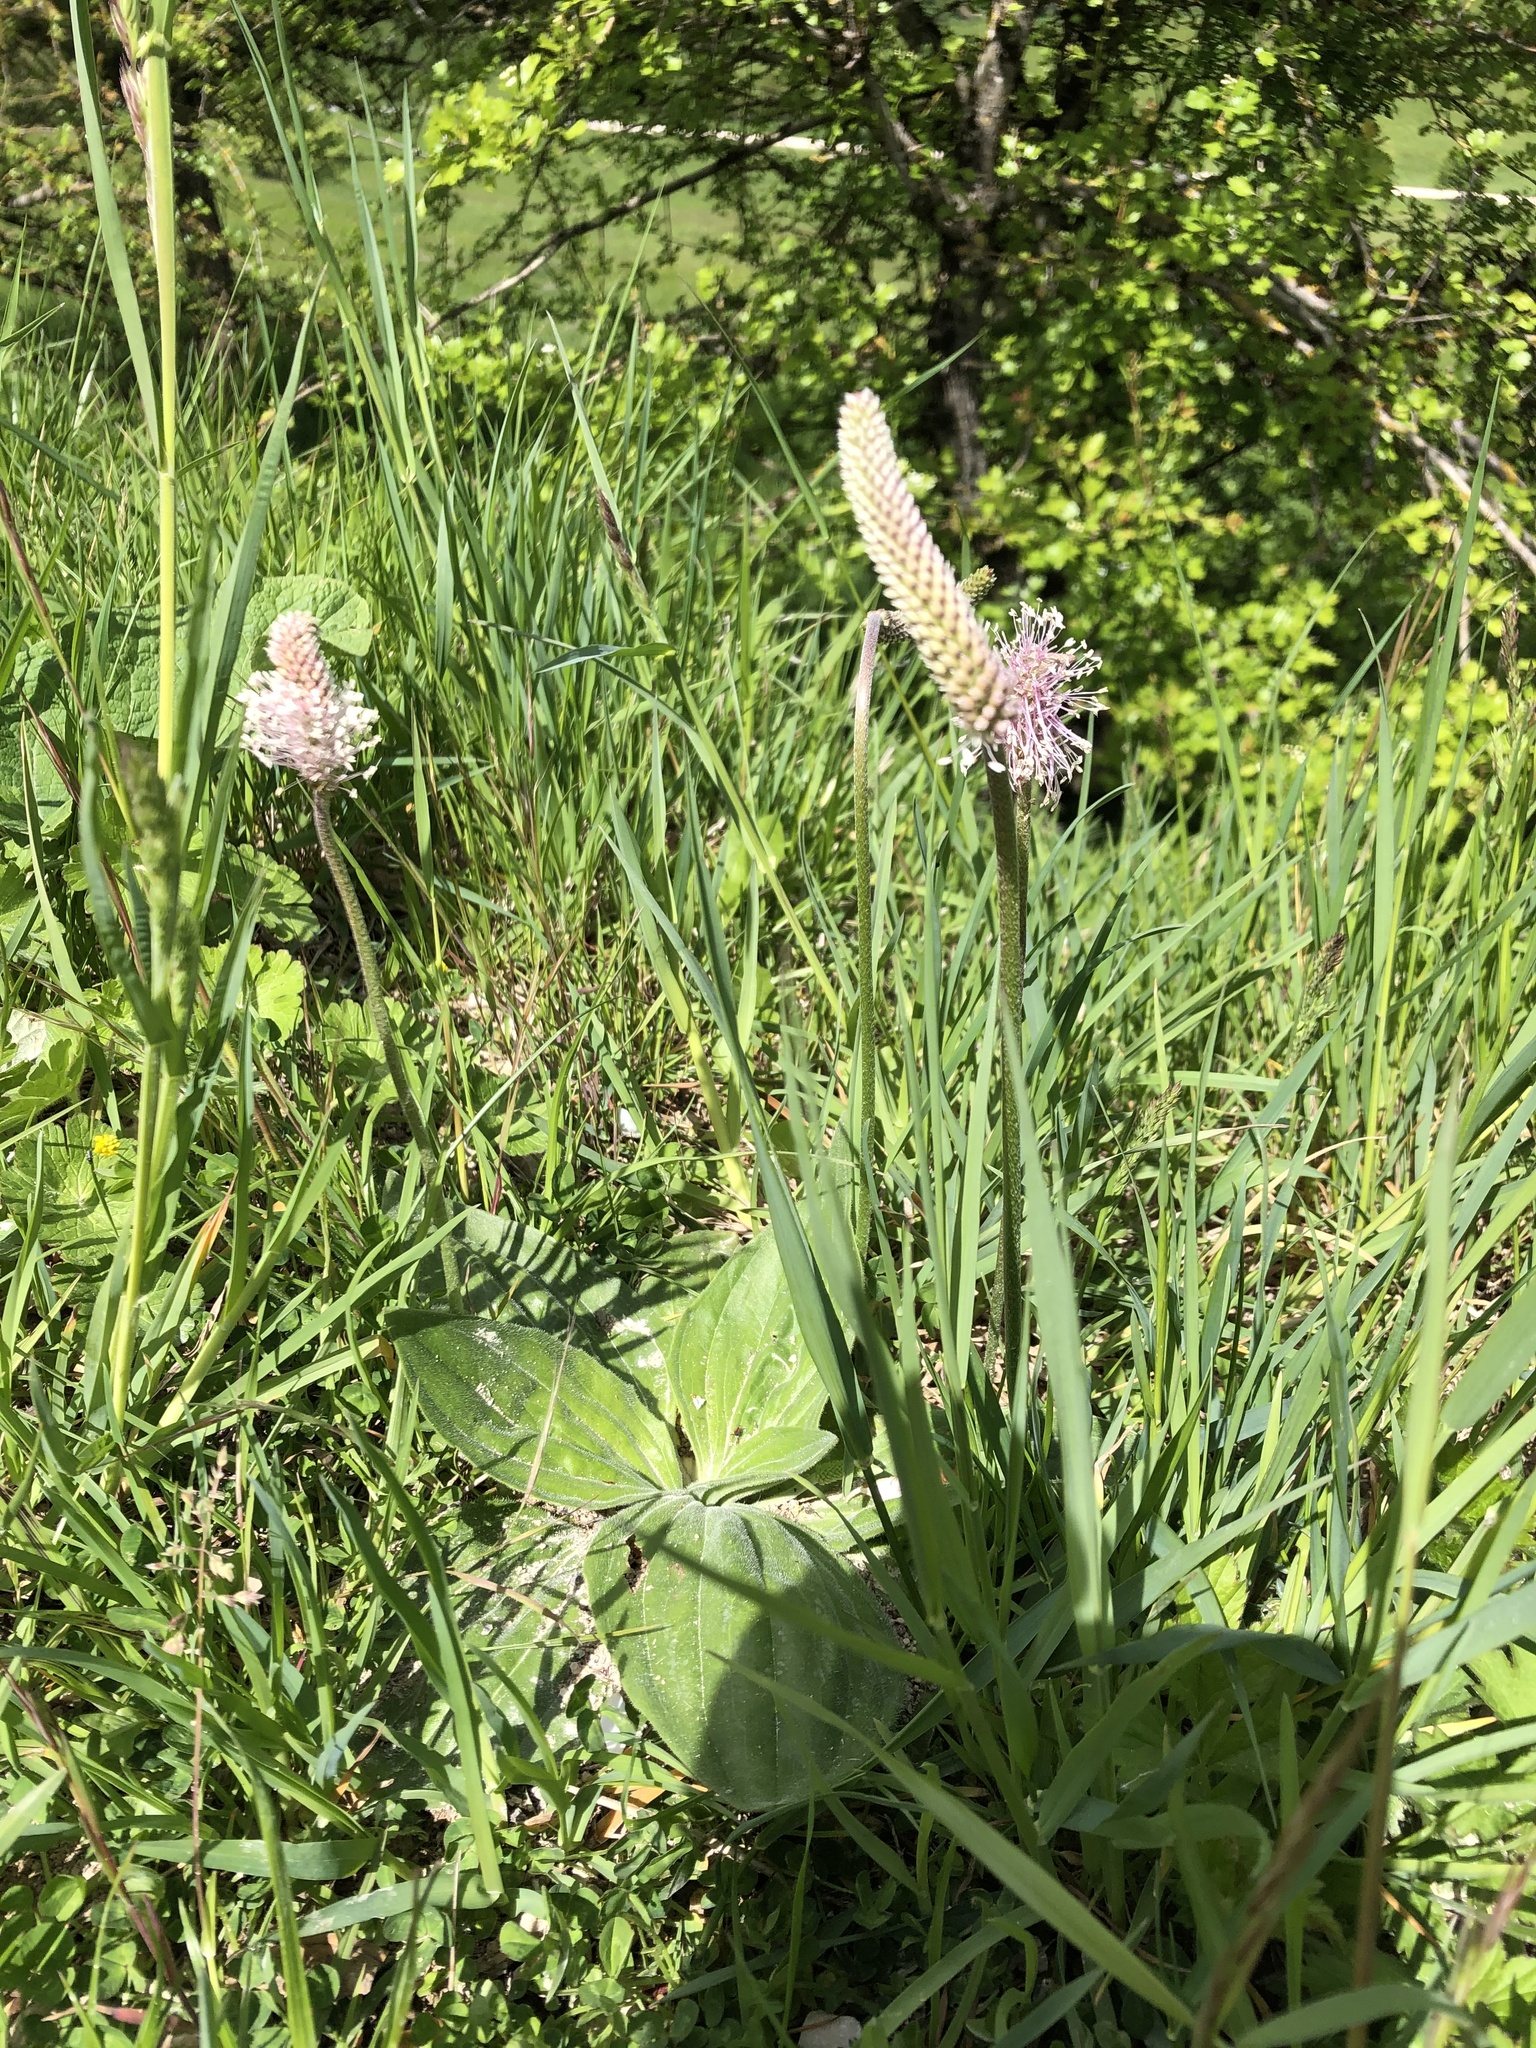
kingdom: Plantae
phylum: Tracheophyta
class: Magnoliopsida
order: Lamiales
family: Plantaginaceae
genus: Plantago
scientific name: Plantago media
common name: Hoary plantain
